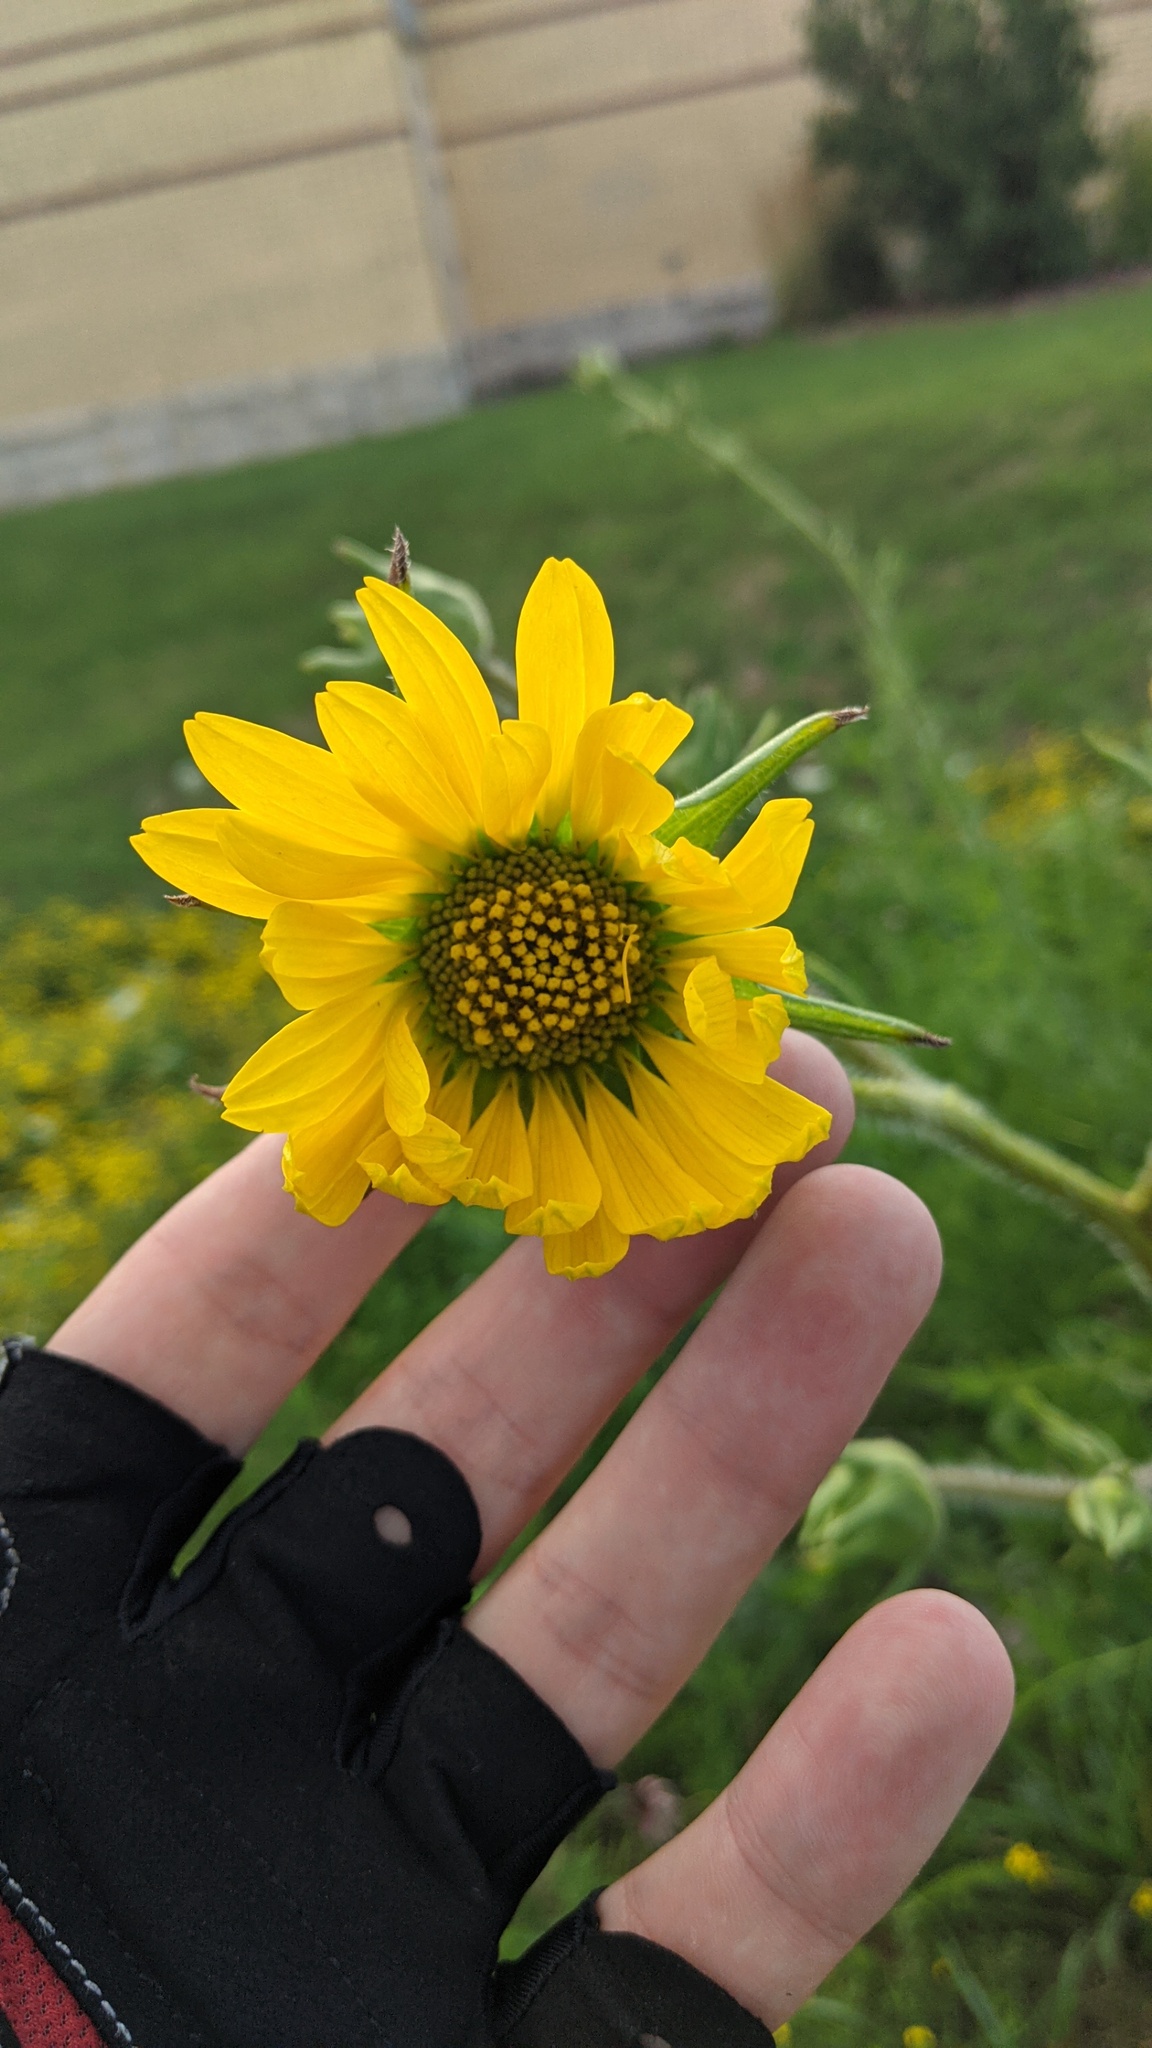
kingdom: Plantae
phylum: Tracheophyta
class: Magnoliopsida
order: Asterales
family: Asteraceae
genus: Silphium
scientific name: Silphium laciniatum
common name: Polarplant
